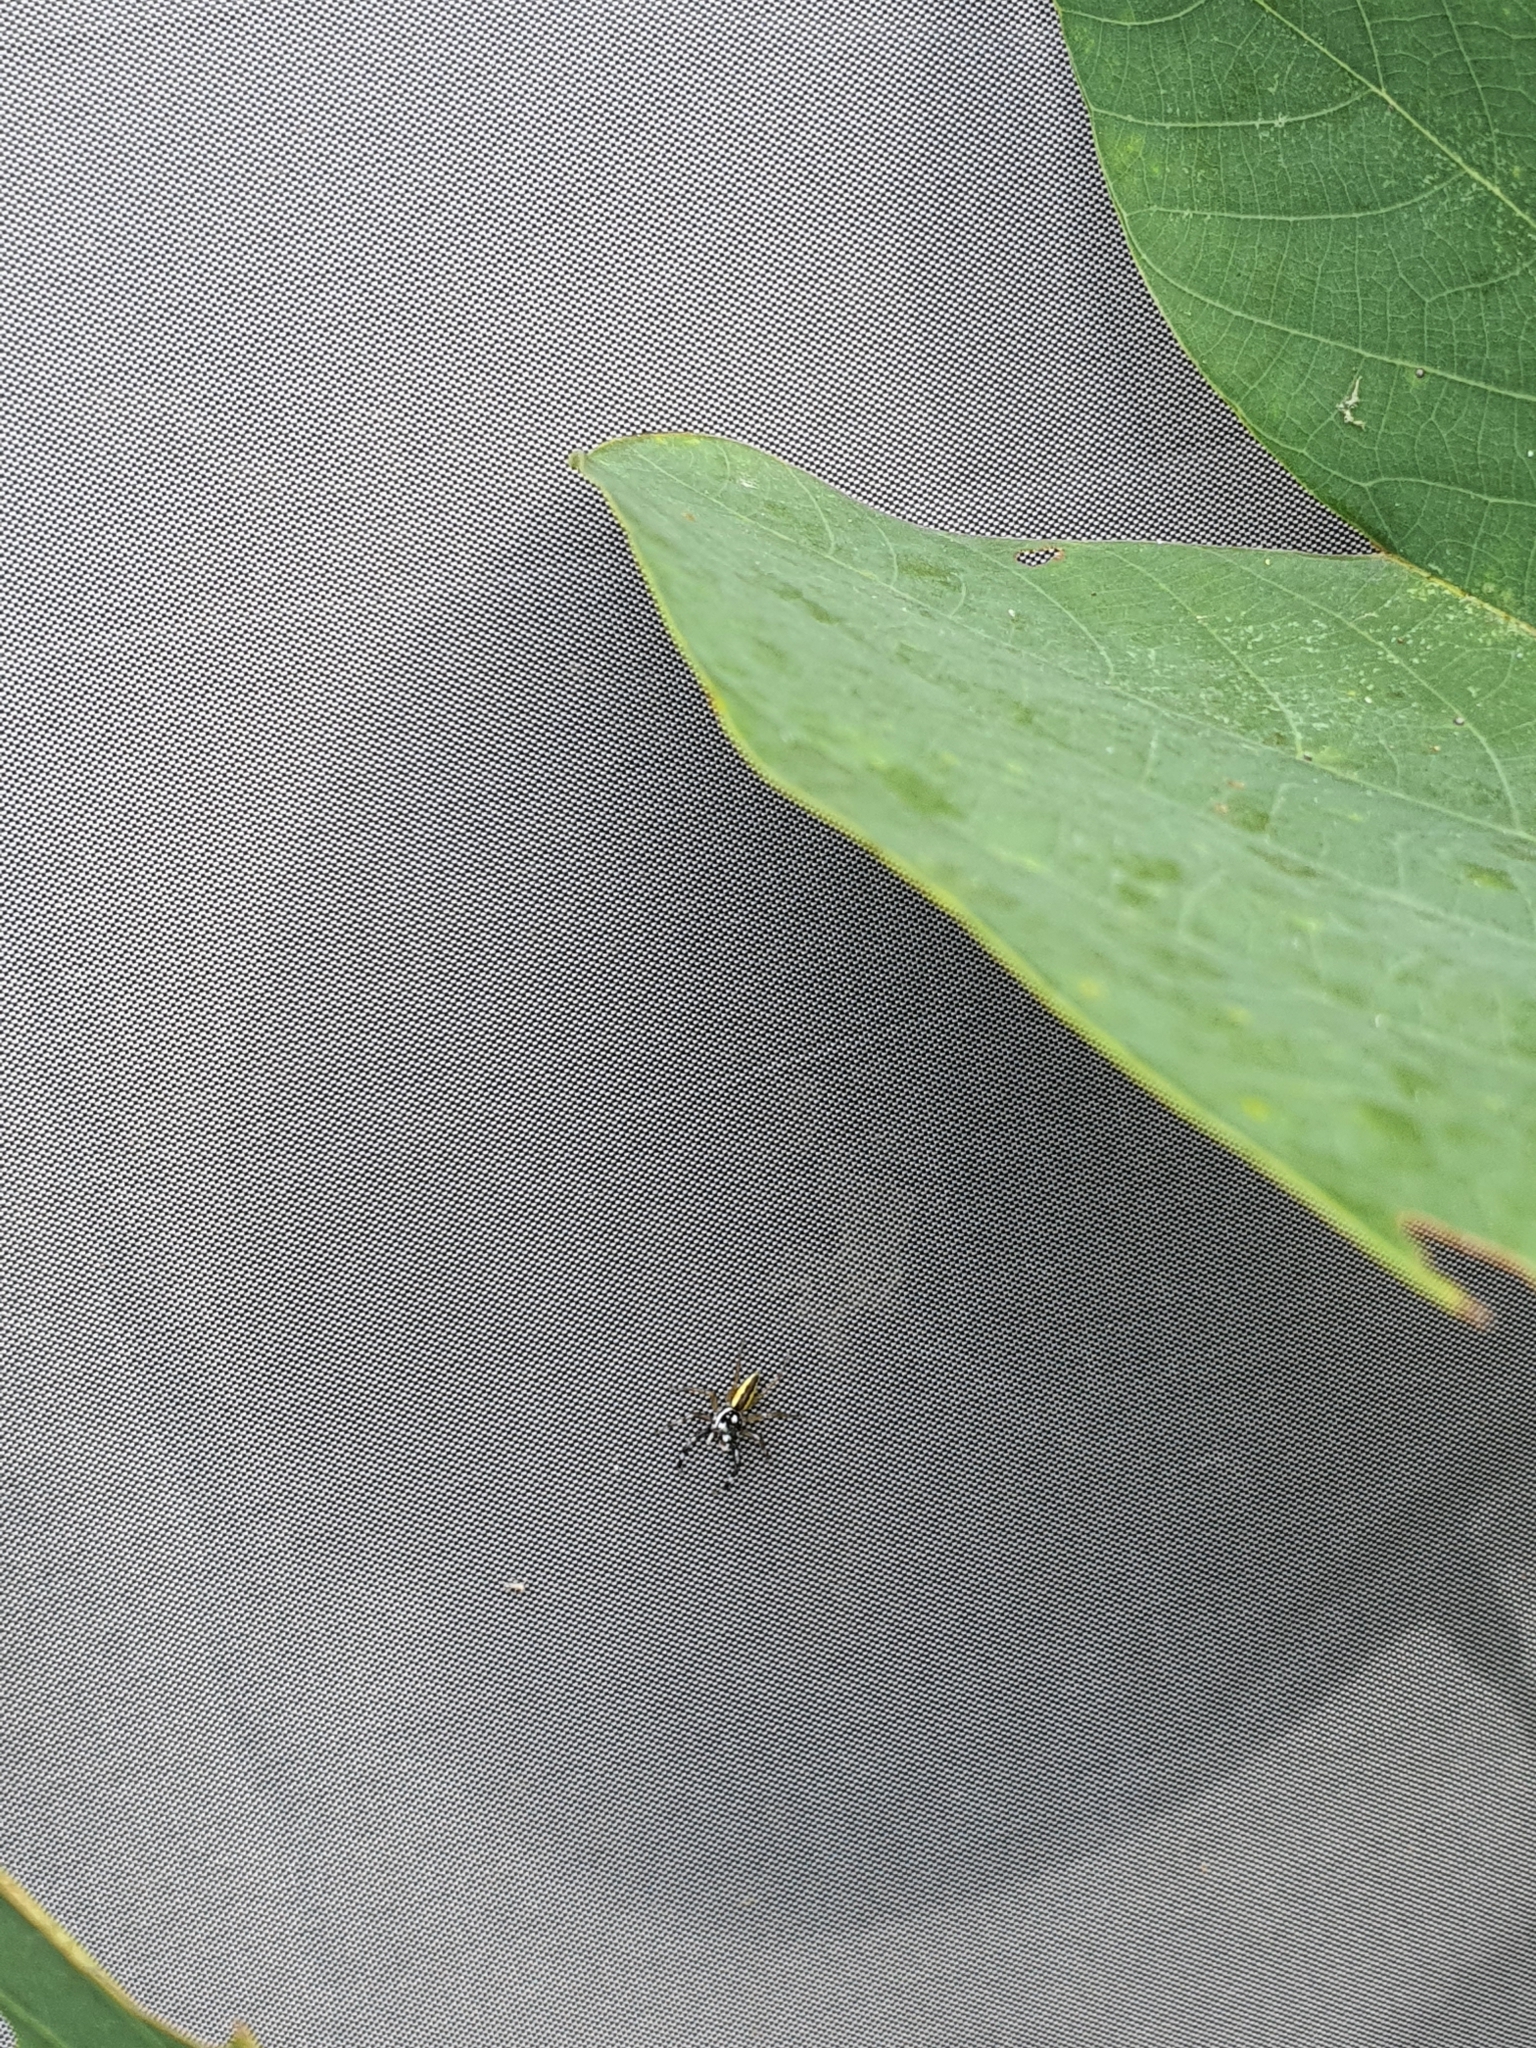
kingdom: Animalia
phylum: Arthropoda
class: Arachnida
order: Araneae
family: Salticidae
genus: Phintelloides
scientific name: Phintelloides versicolor
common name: Jumping spider
